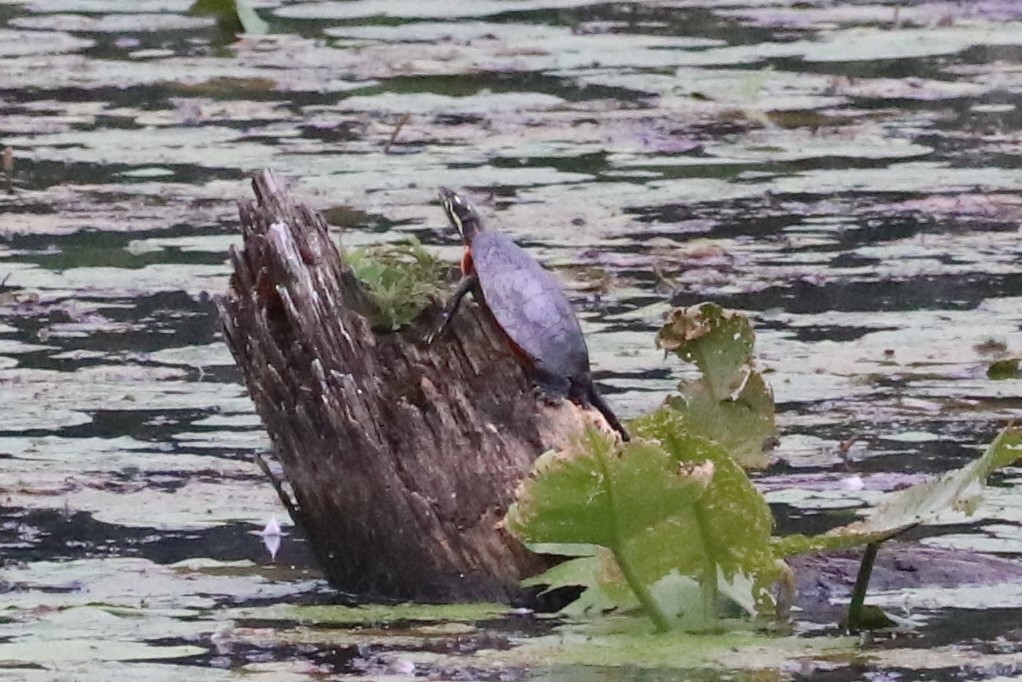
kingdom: Animalia
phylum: Chordata
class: Testudines
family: Emydidae
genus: Chrysemys
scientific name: Chrysemys picta
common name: Painted turtle
